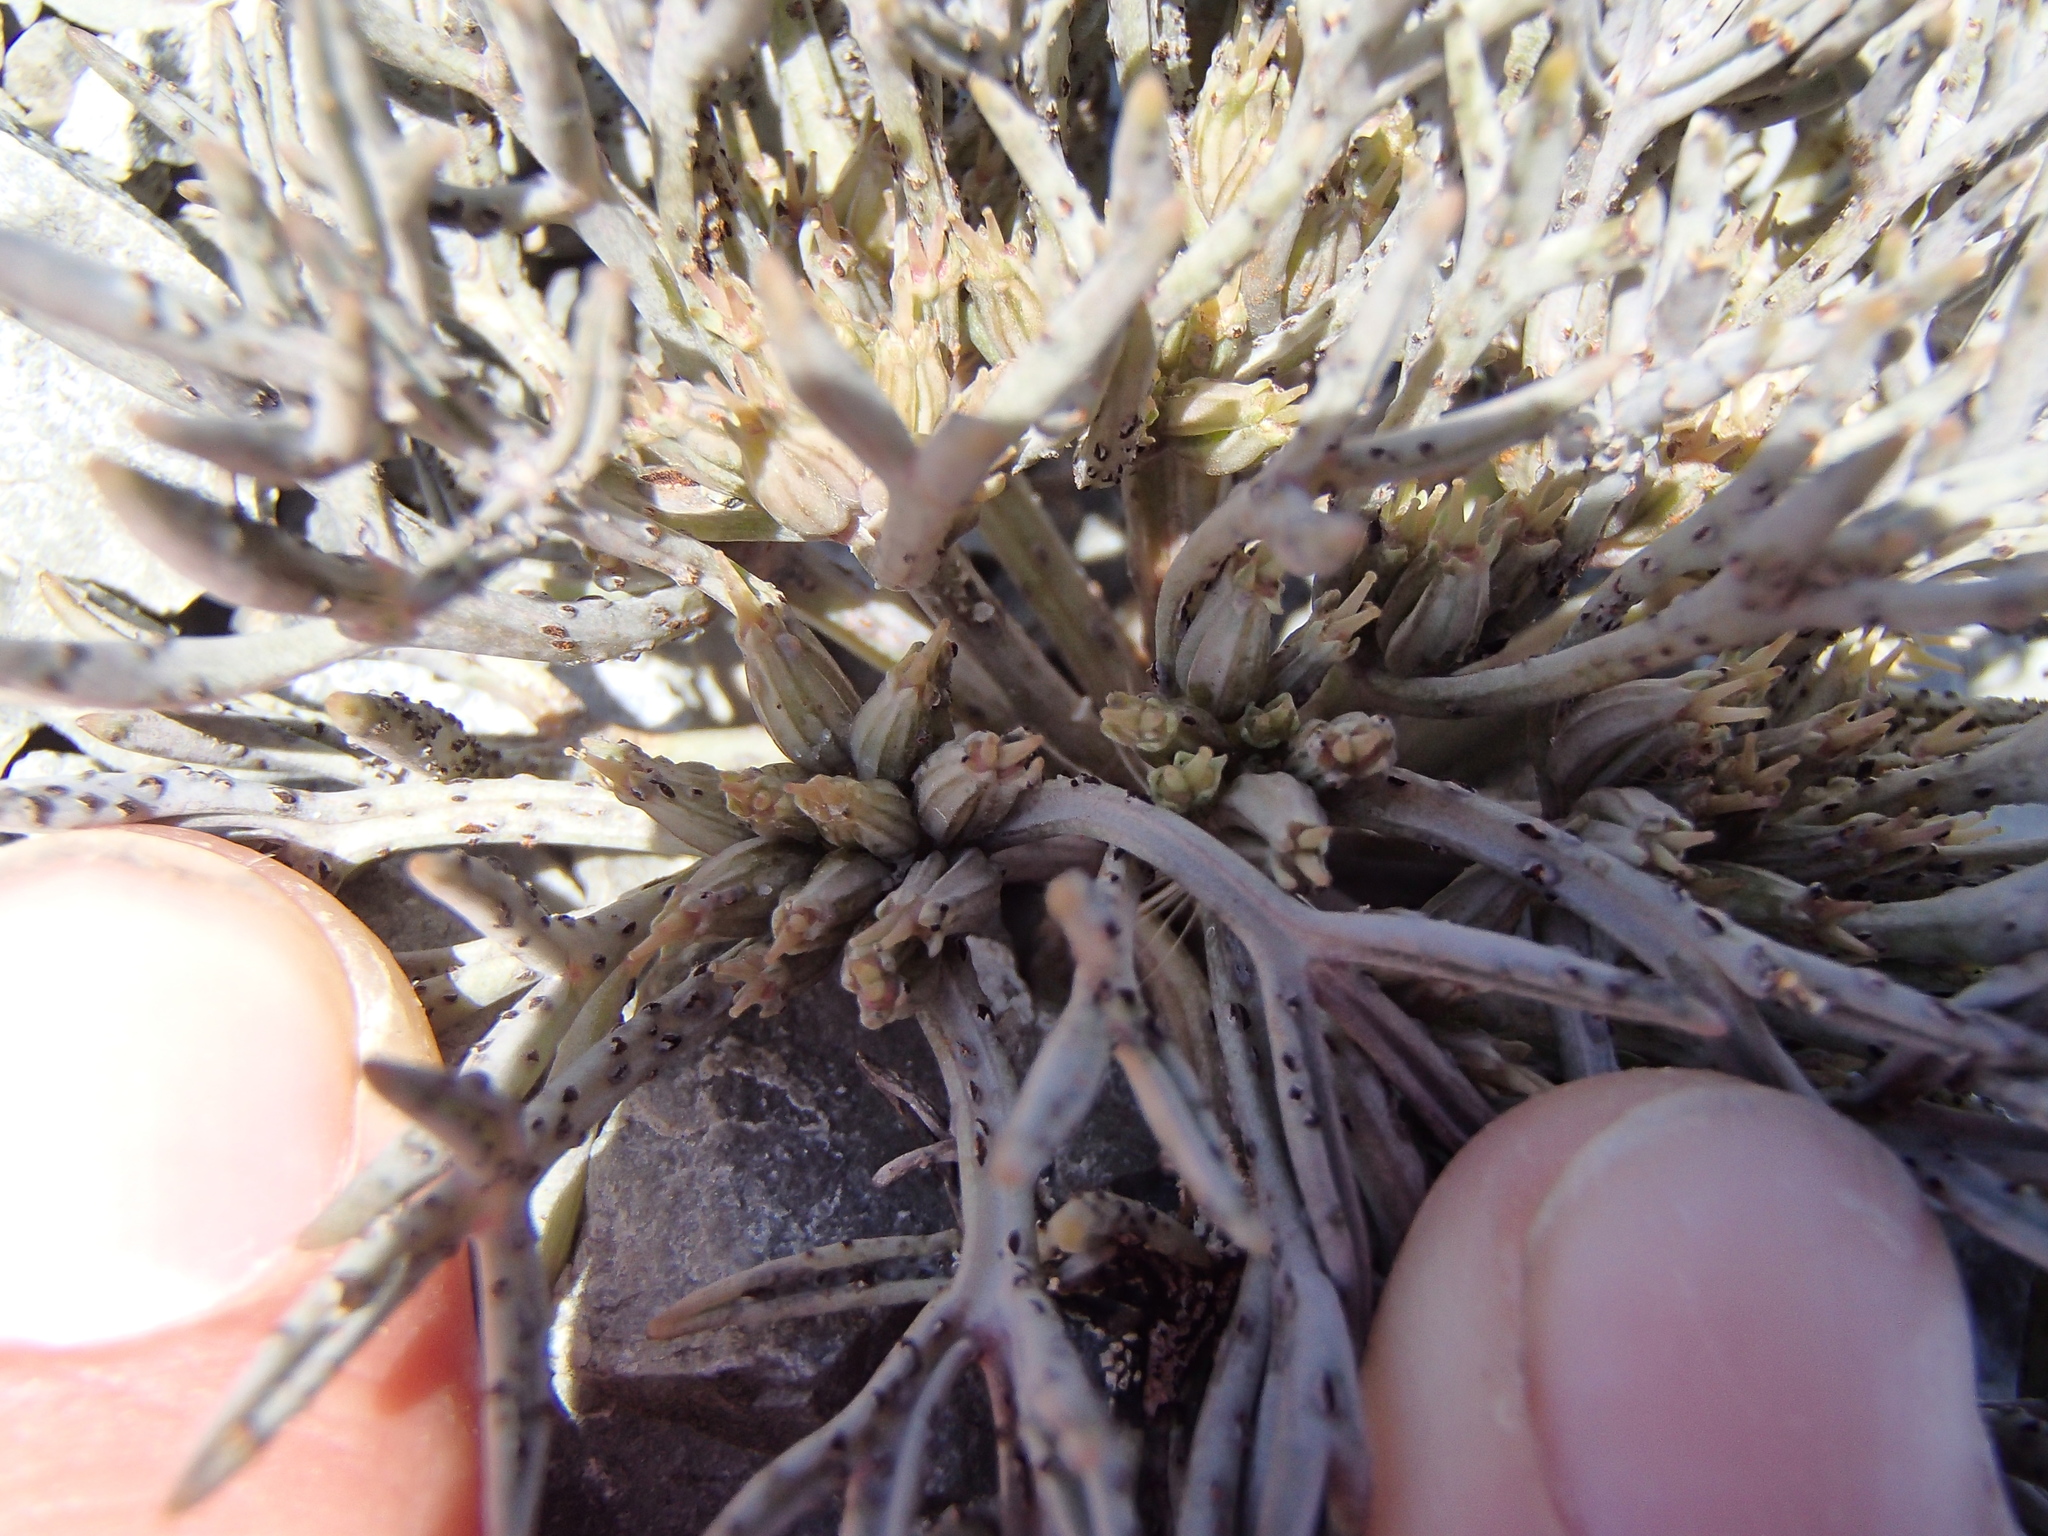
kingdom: Plantae
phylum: Tracheophyta
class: Magnoliopsida
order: Apiales
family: Apiaceae
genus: Lignocarpa
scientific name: Lignocarpa carnosula
